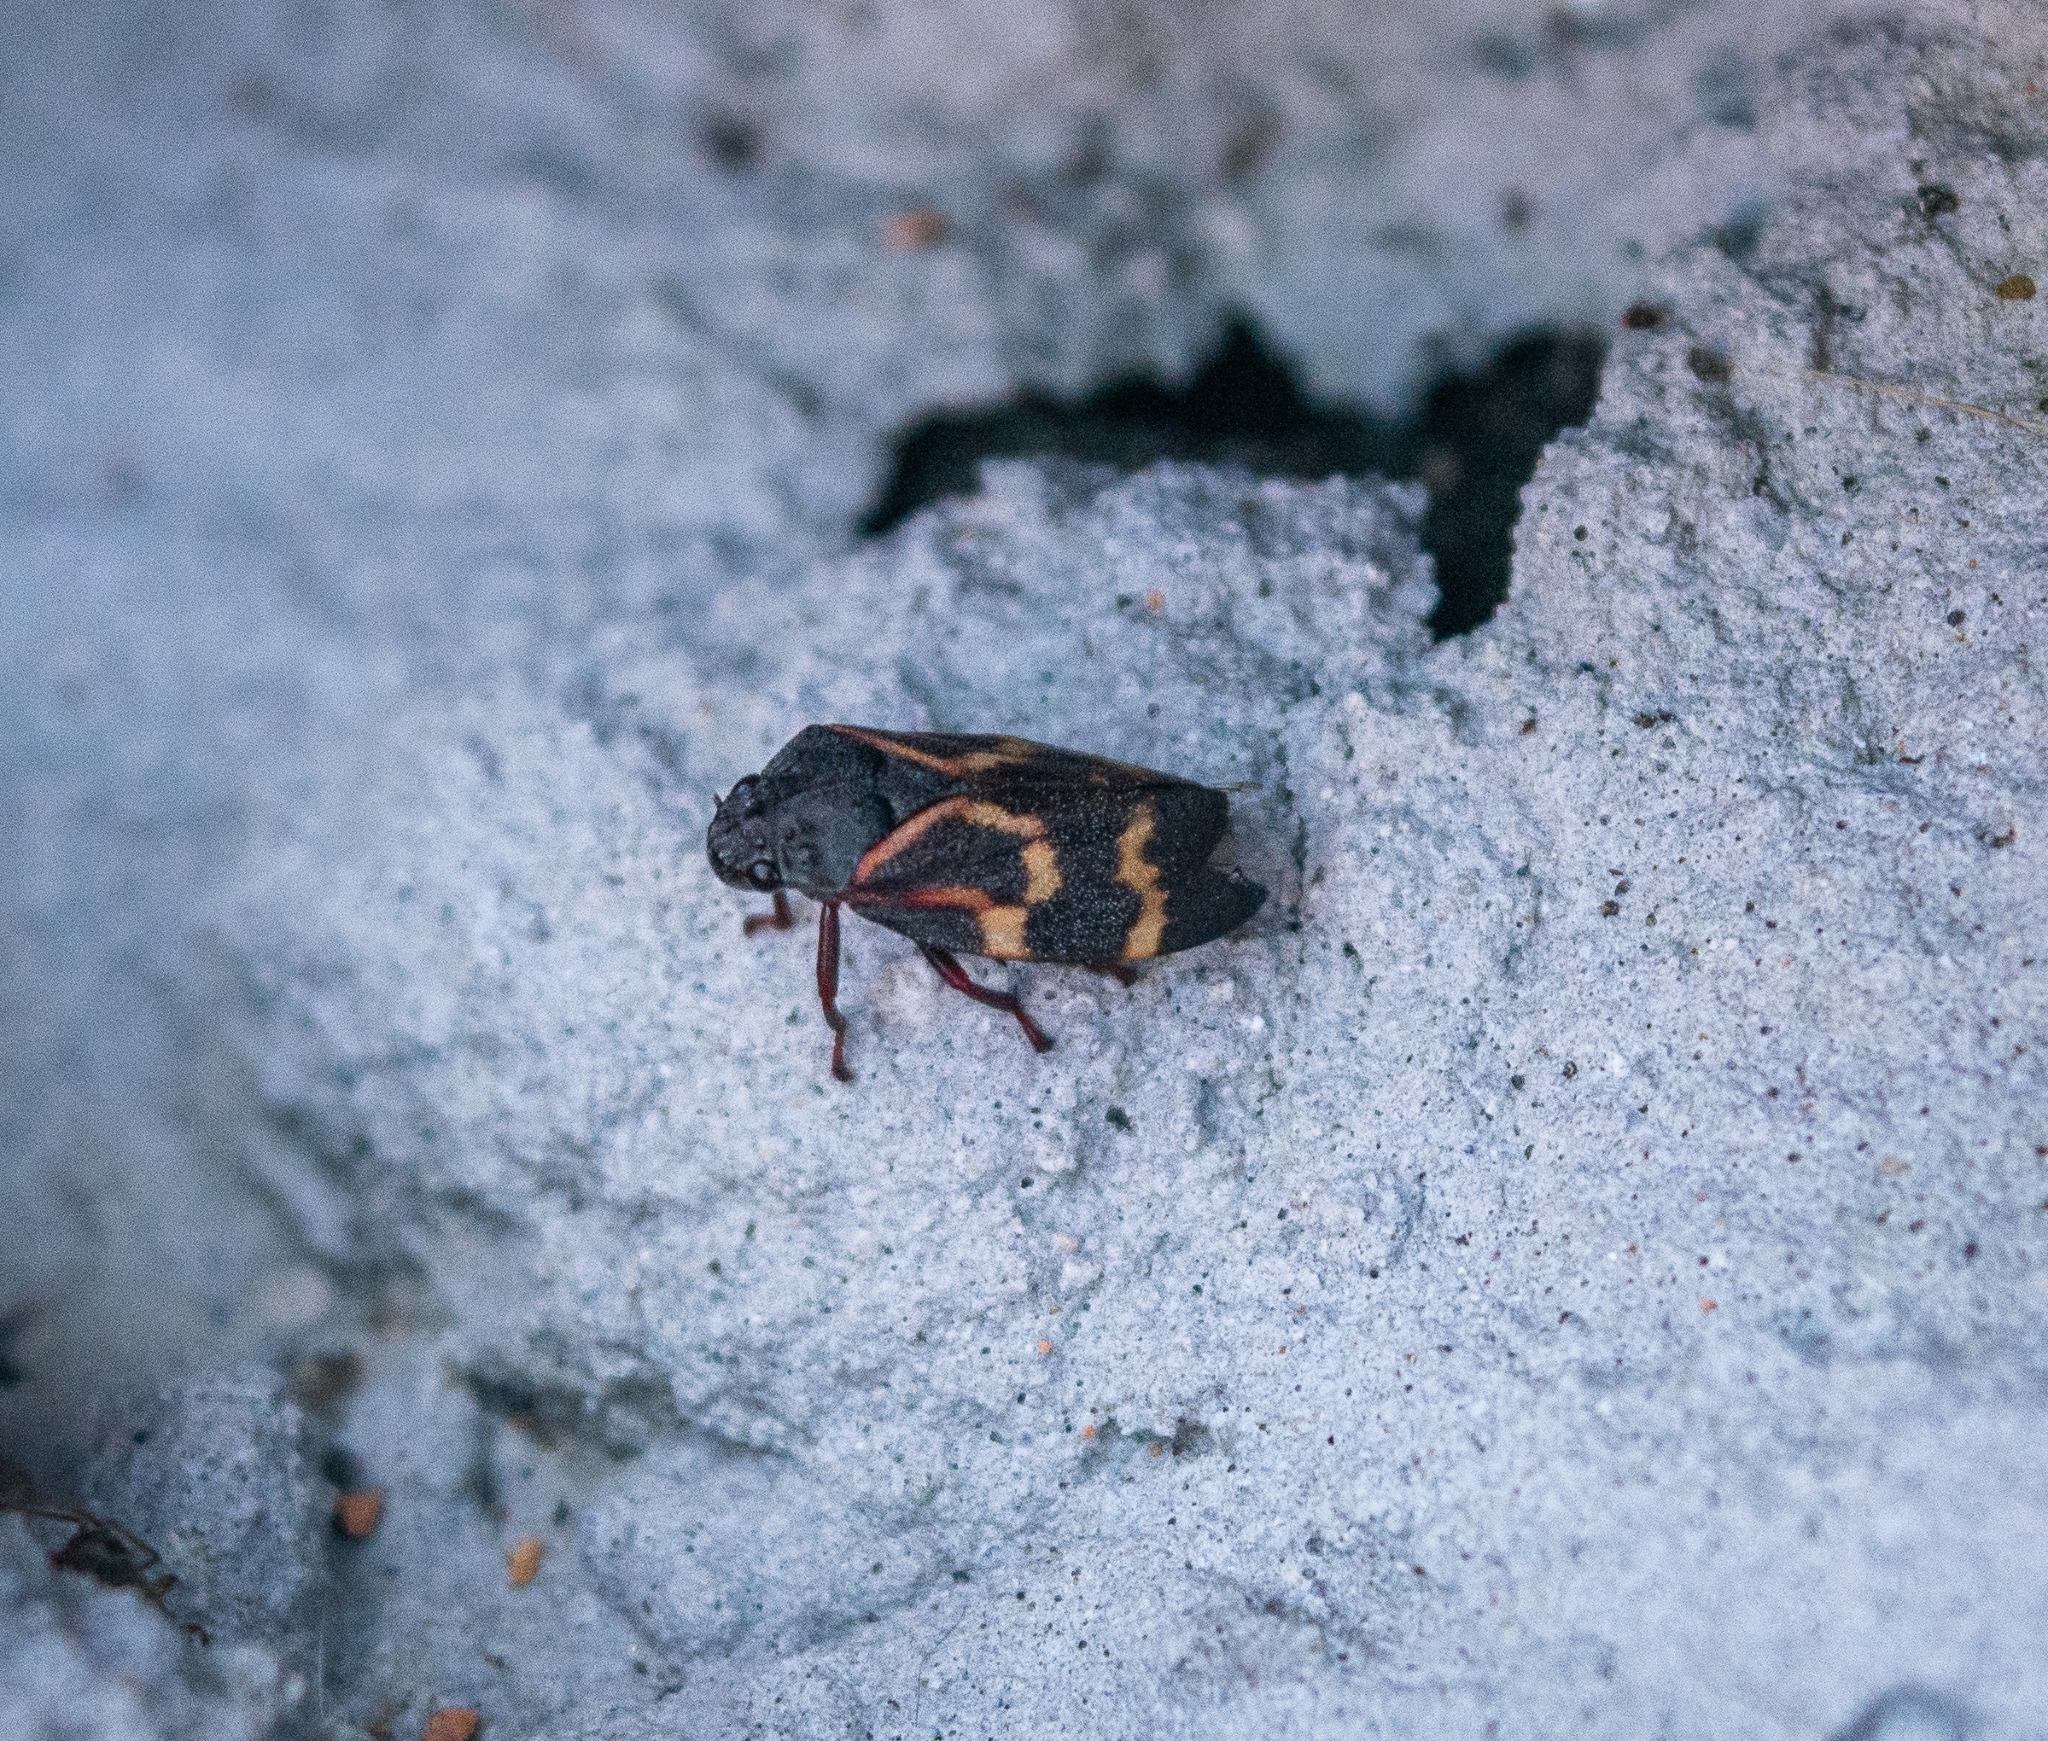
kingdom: Animalia
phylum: Arthropoda
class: Insecta
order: Hemiptera
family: Cercopidae
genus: Deois
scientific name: Deois flexuosa
